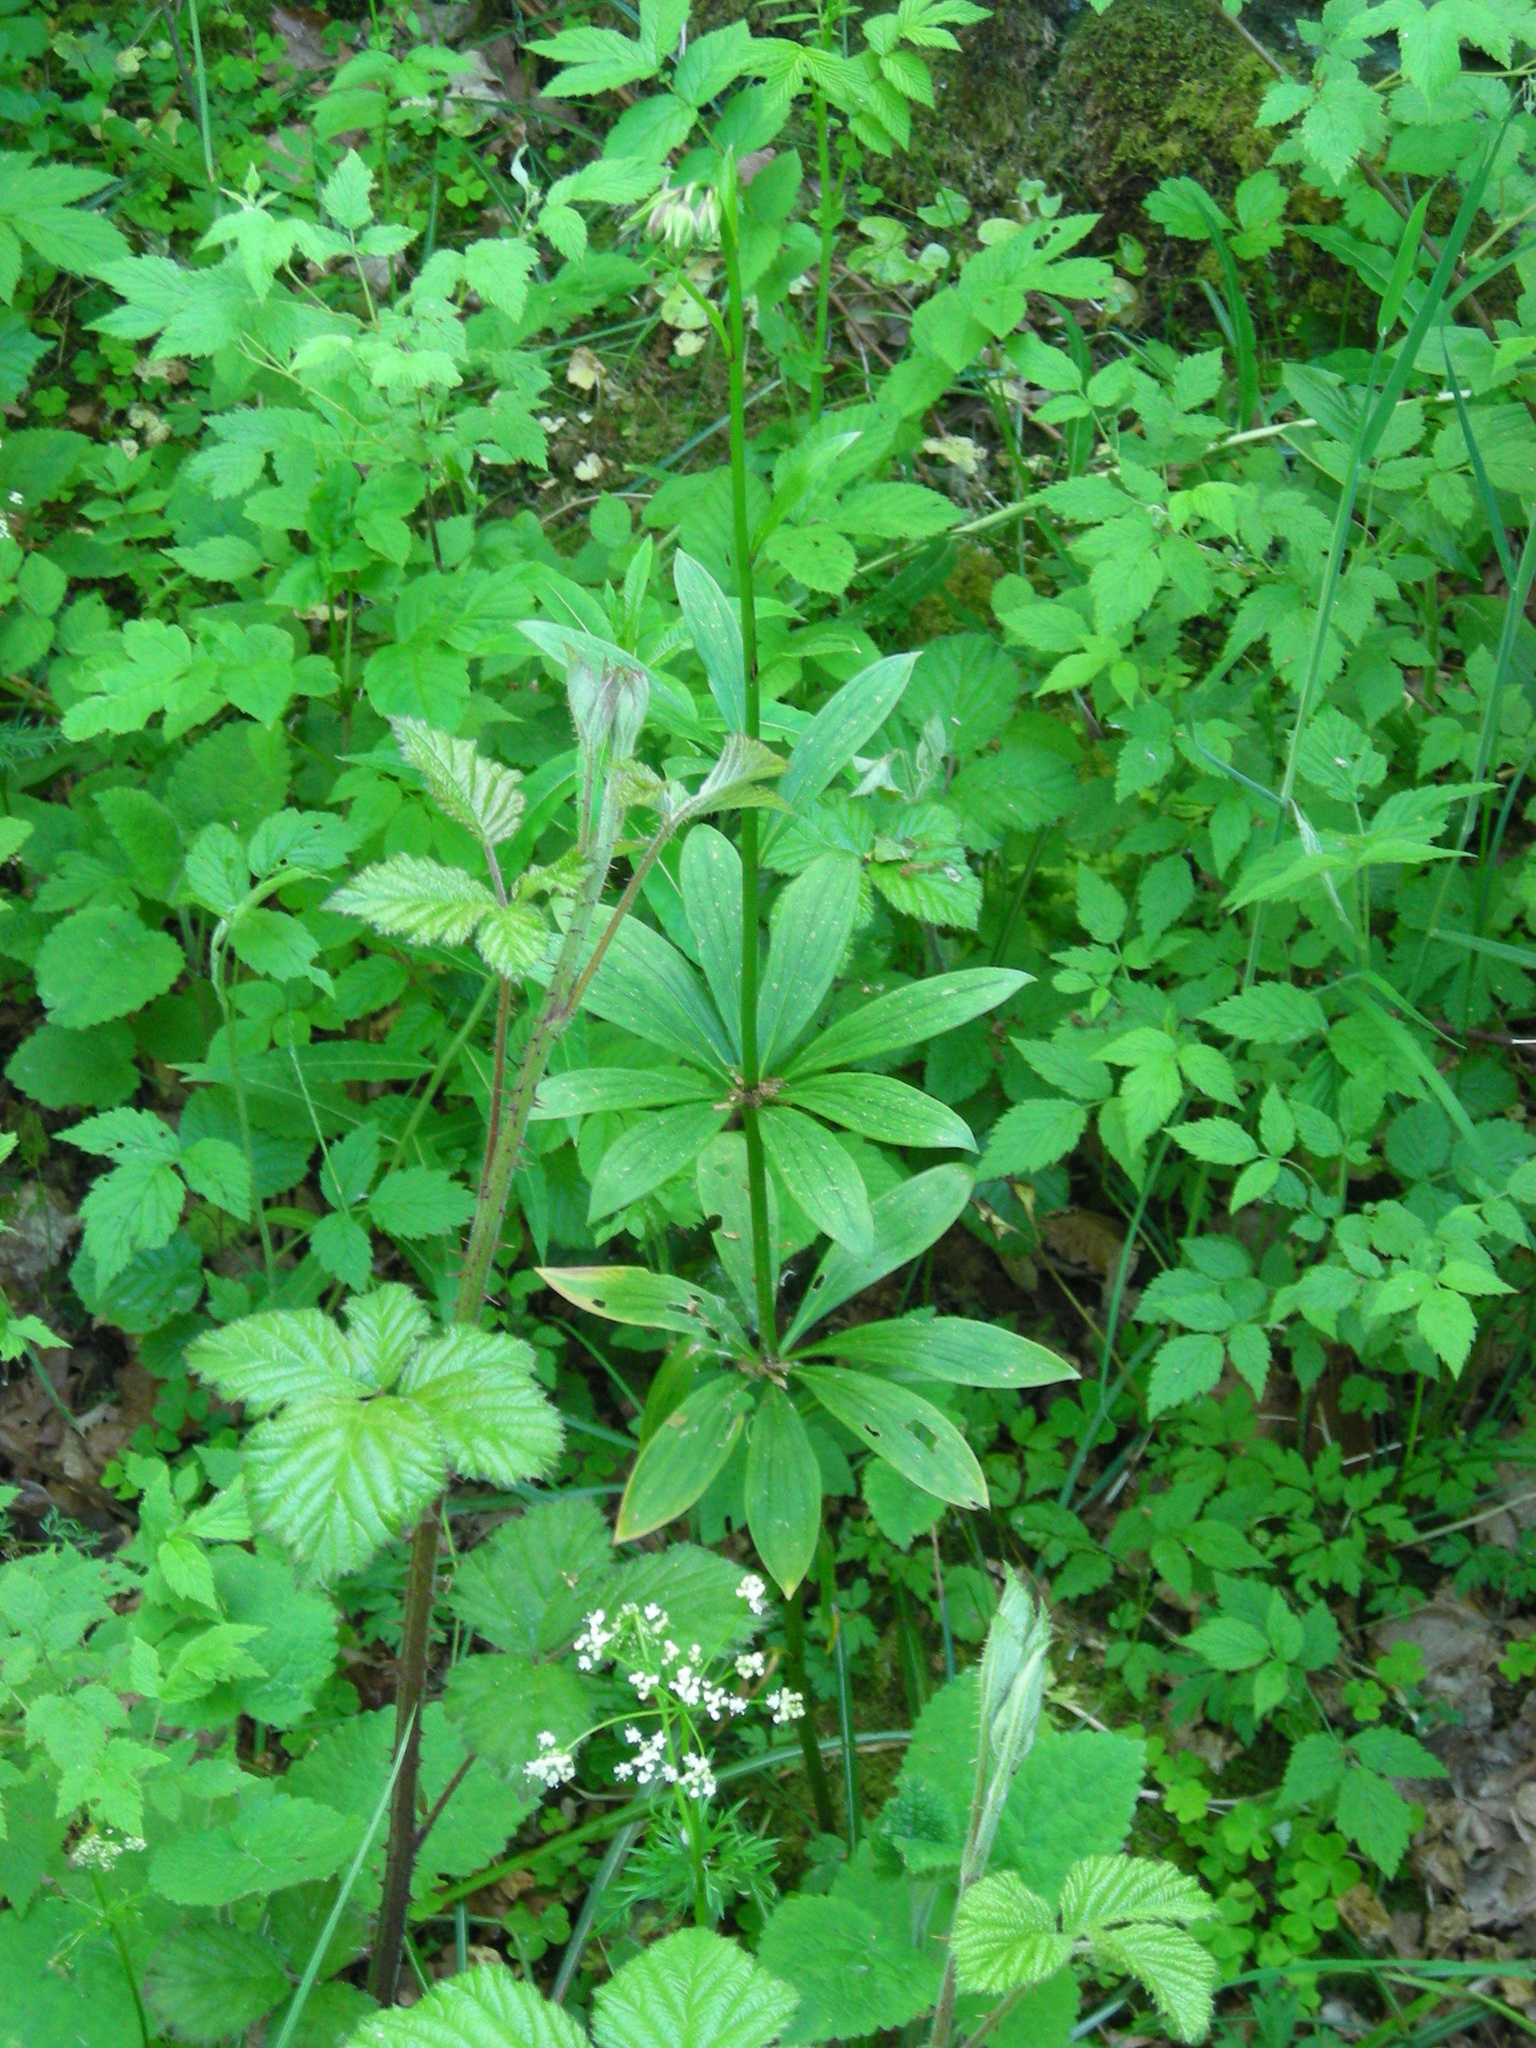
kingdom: Plantae
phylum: Tracheophyta
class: Liliopsida
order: Liliales
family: Liliaceae
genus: Lilium
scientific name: Lilium martagon
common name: Martagon lily
